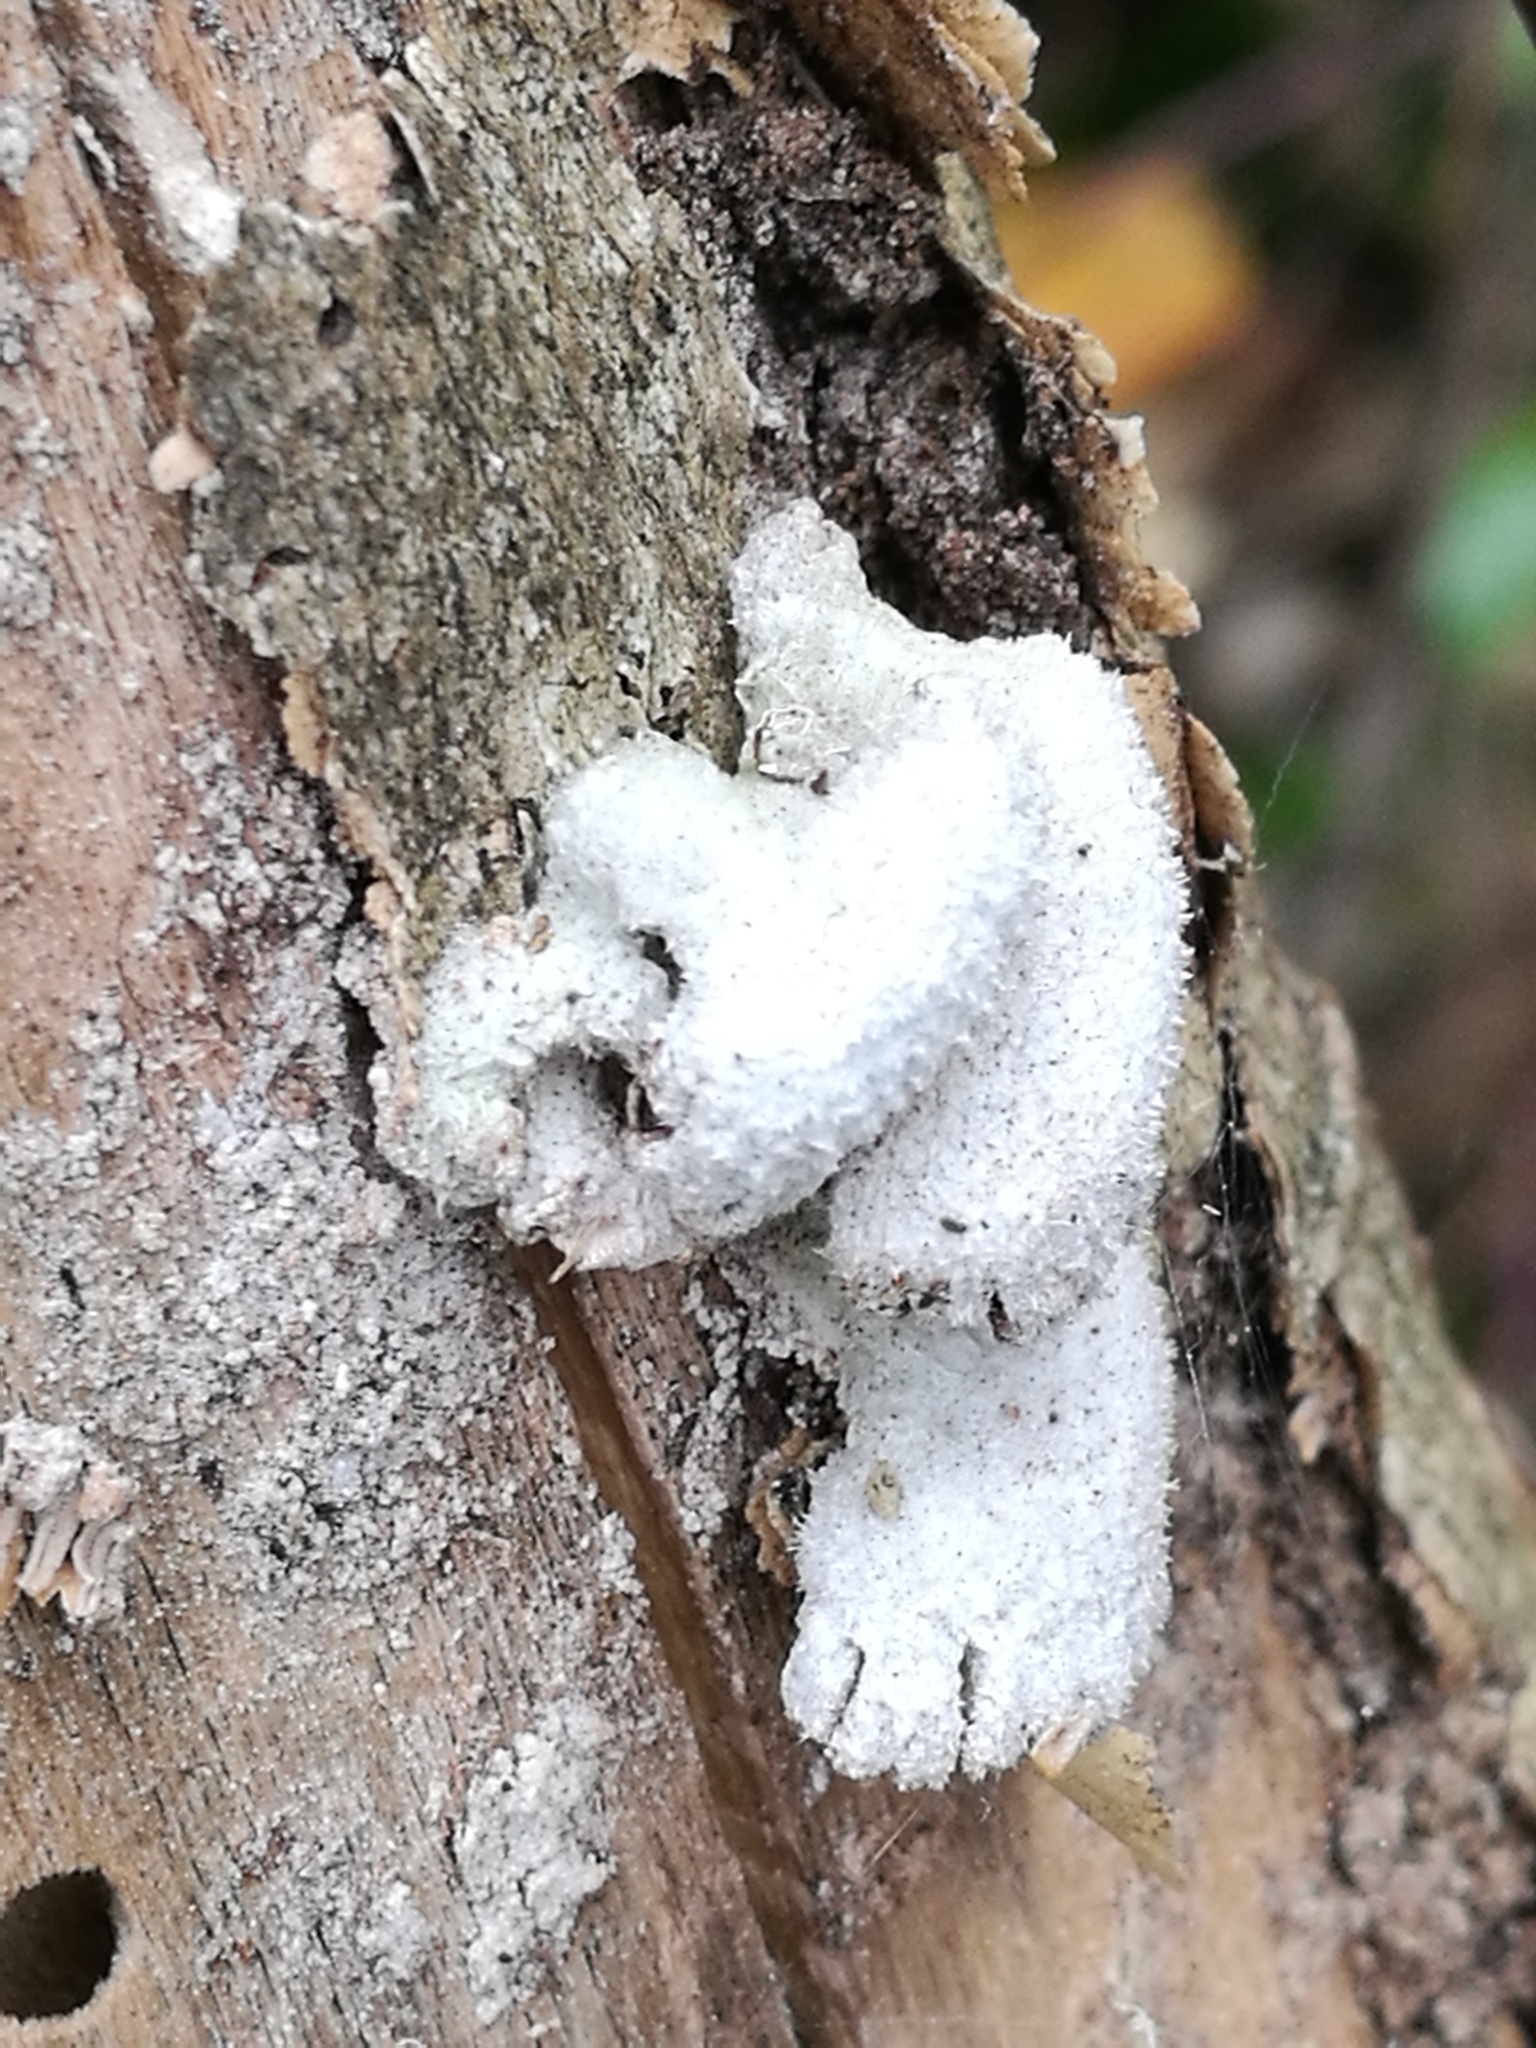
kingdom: Fungi
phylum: Basidiomycota
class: Agaricomycetes
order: Agaricales
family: Schizophyllaceae
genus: Schizophyllum
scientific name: Schizophyllum commune
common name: Common porecrust
